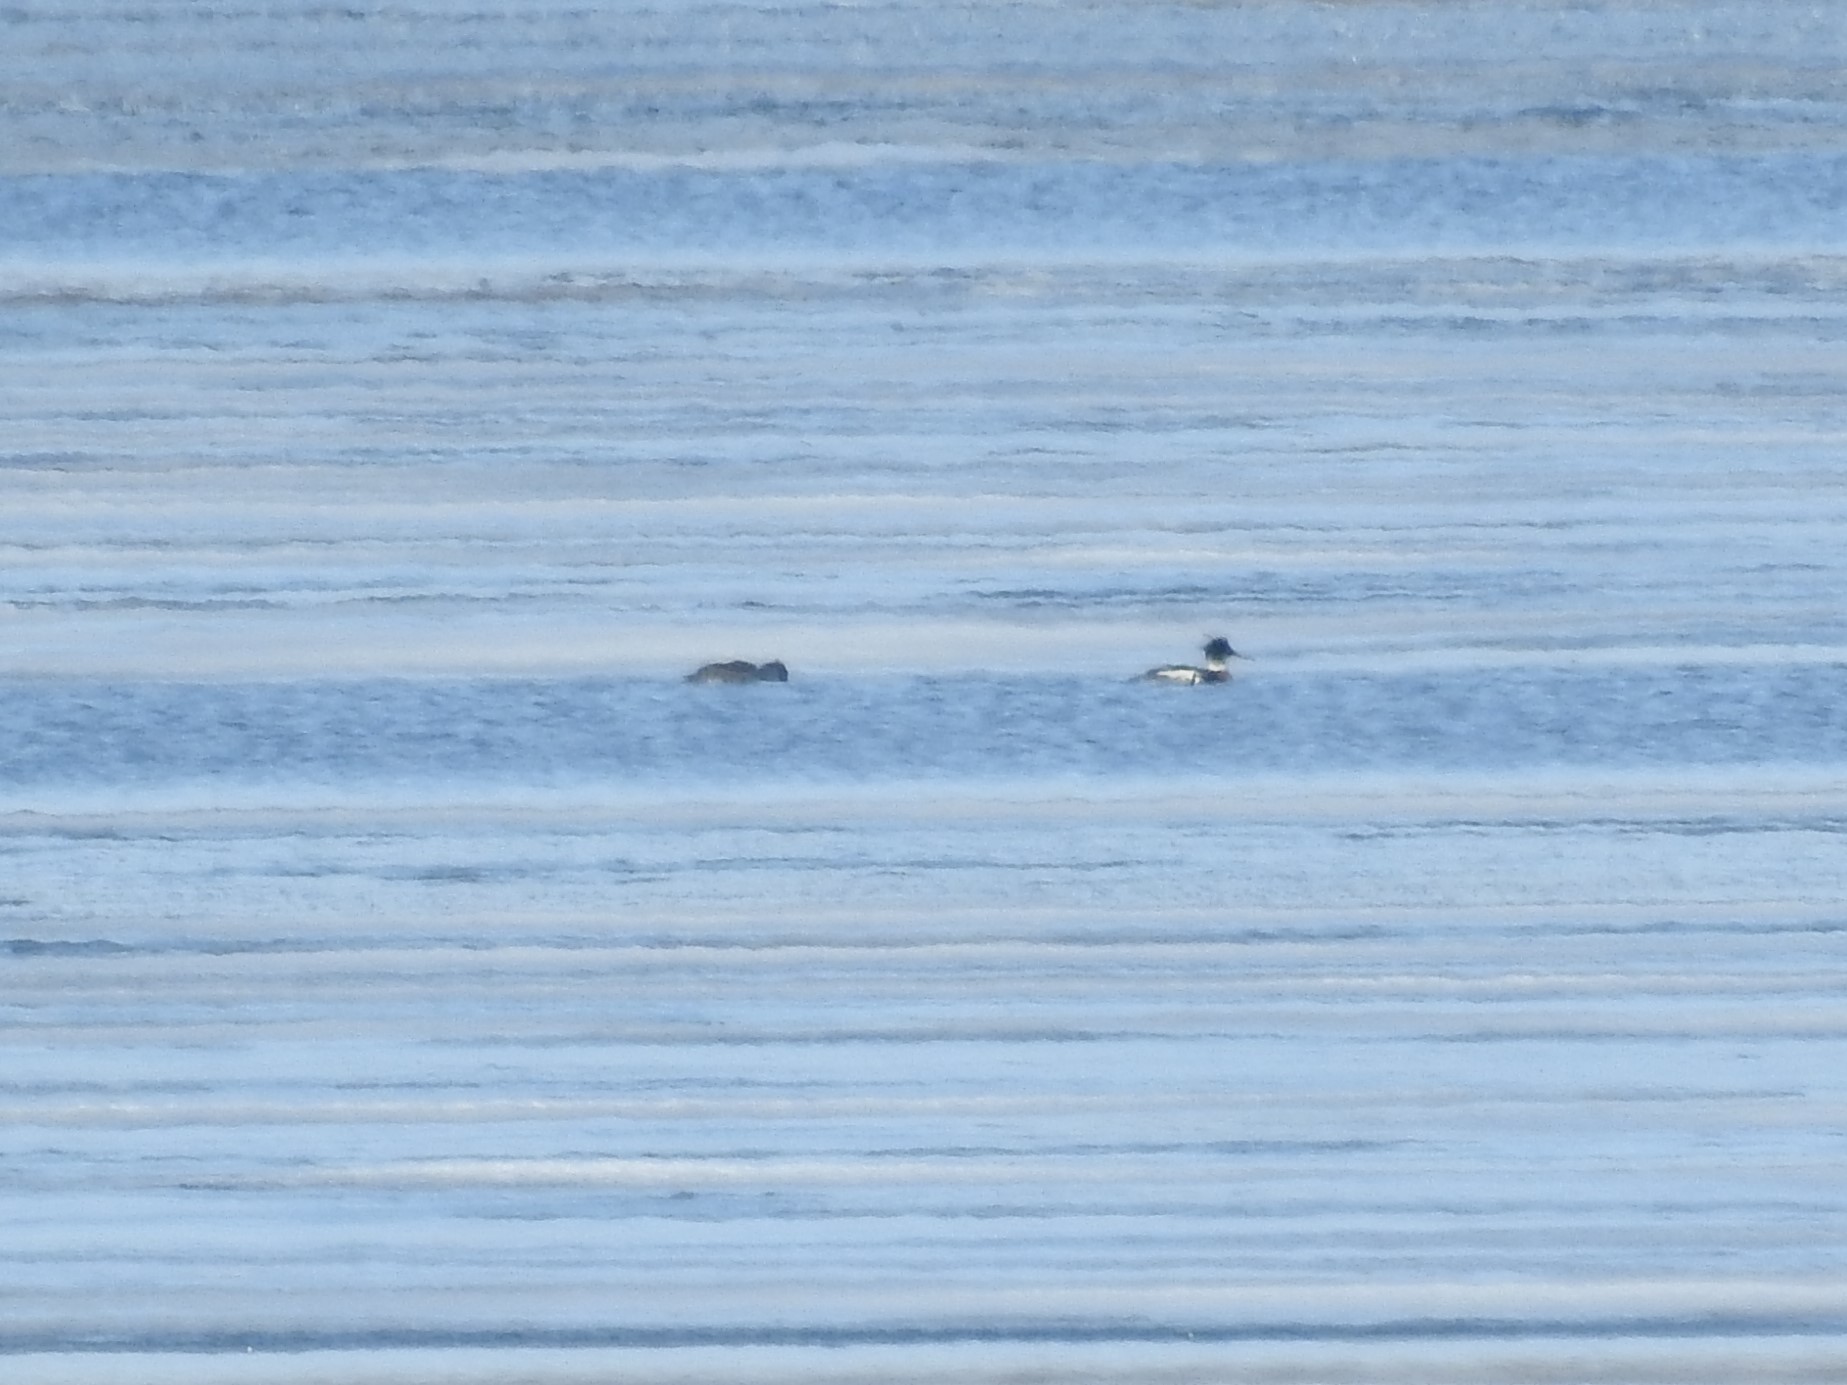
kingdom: Animalia
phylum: Chordata
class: Aves
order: Anseriformes
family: Anatidae
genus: Mergus
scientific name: Mergus serrator
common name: Red-breasted merganser
